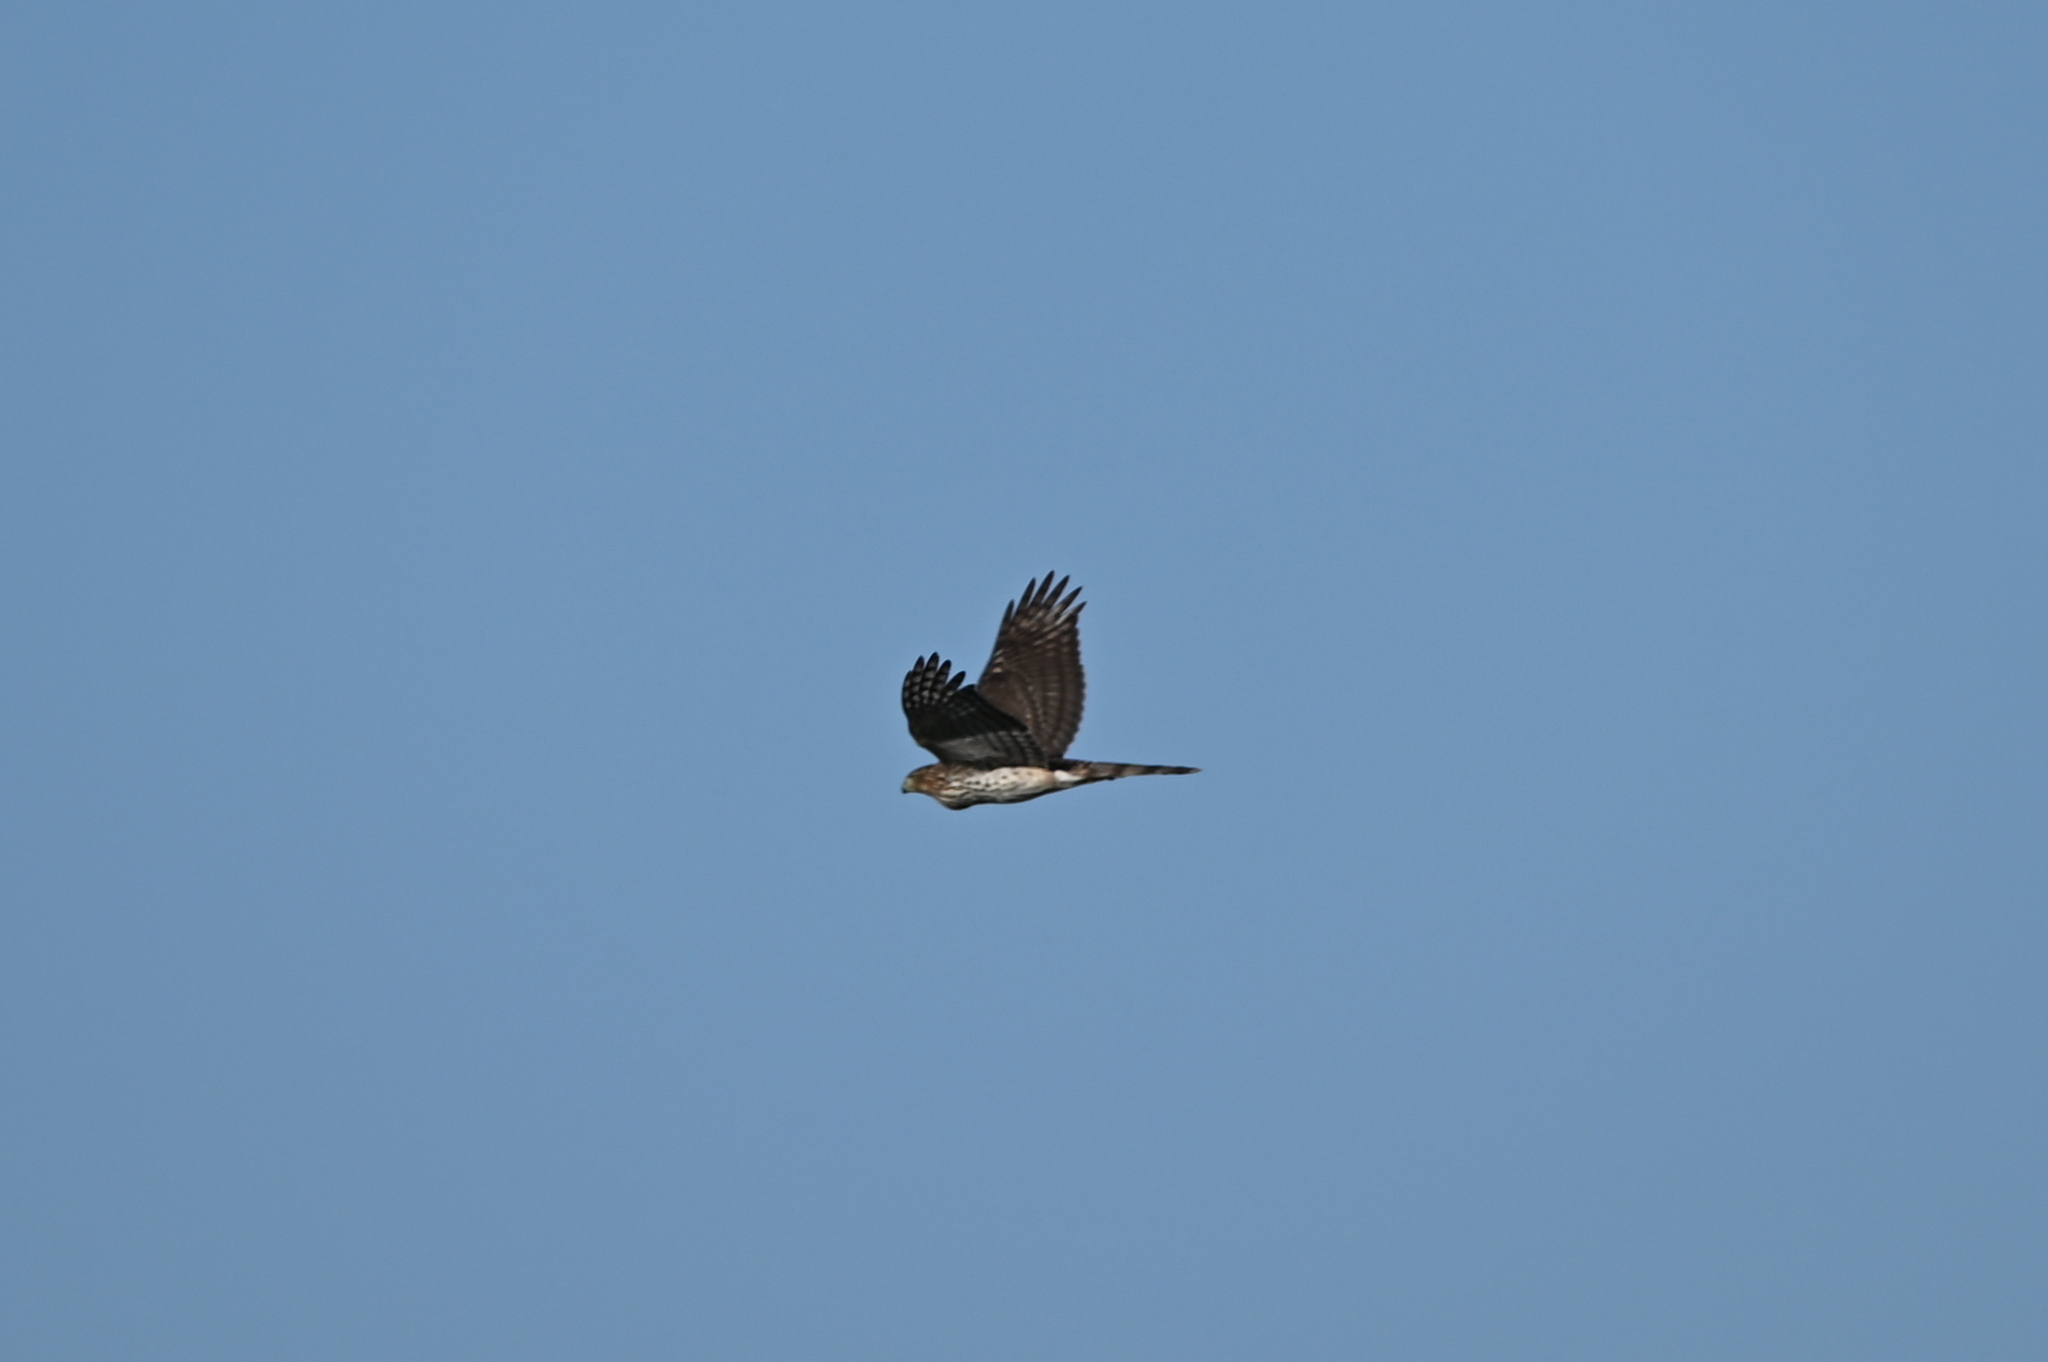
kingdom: Animalia
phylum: Chordata
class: Aves
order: Accipitriformes
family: Accipitridae
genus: Accipiter
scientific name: Accipiter cooperii
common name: Cooper's hawk
